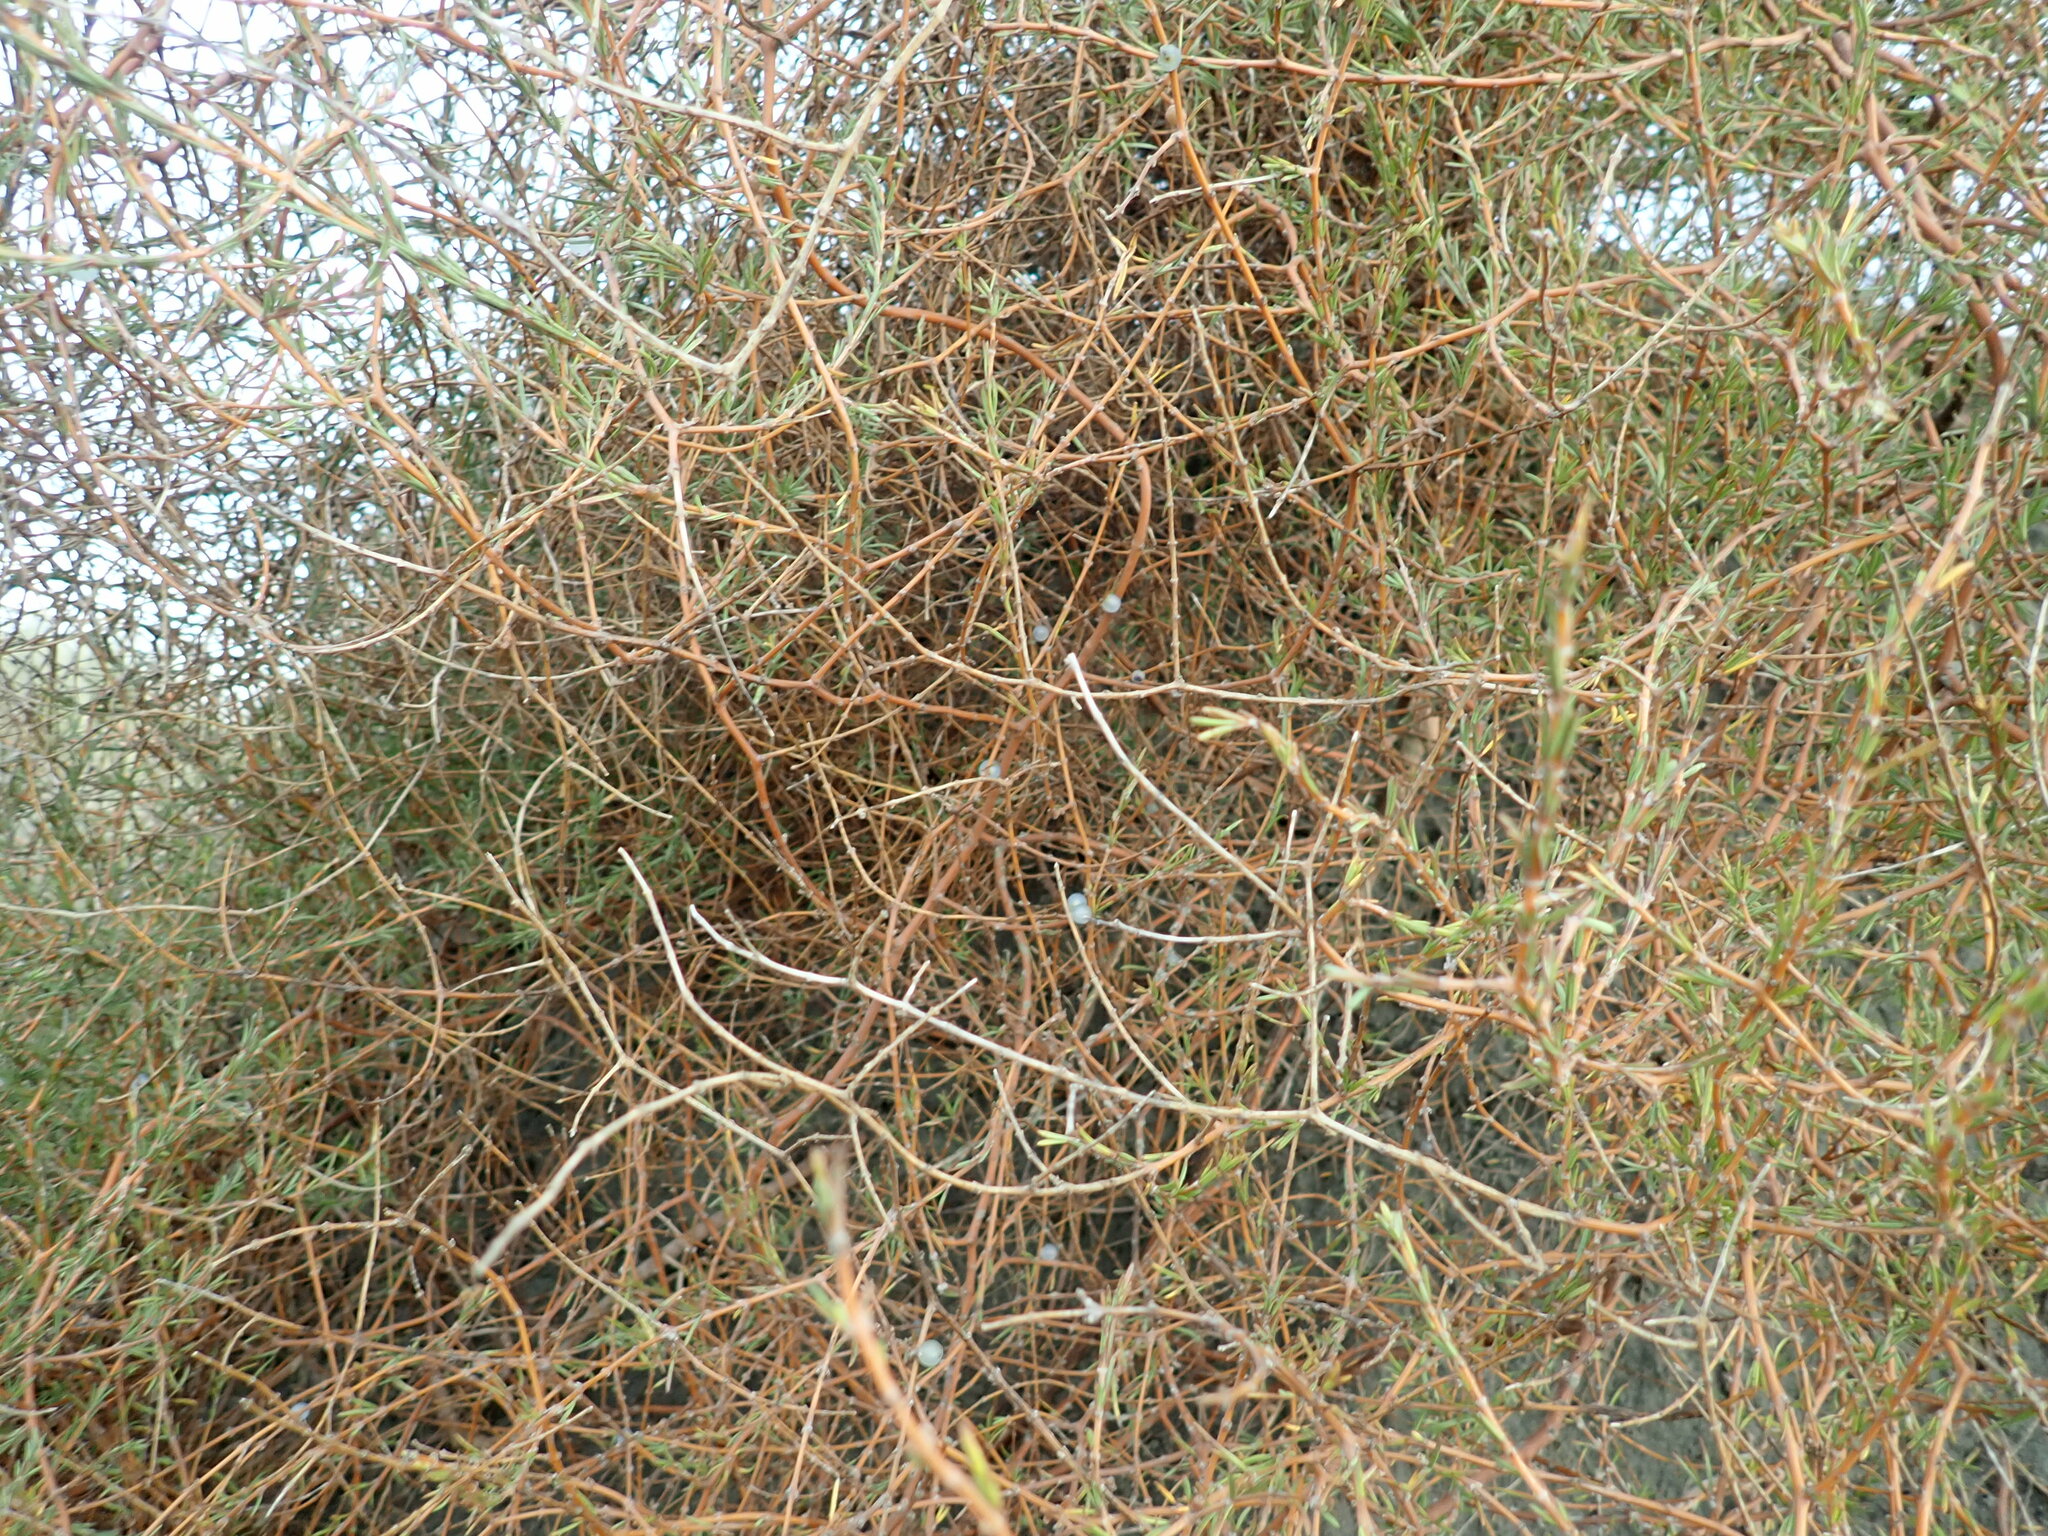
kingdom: Plantae
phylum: Tracheophyta
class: Magnoliopsida
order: Gentianales
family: Rubiaceae
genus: Coprosma
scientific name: Coprosma acerosa
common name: Sand coprosma
